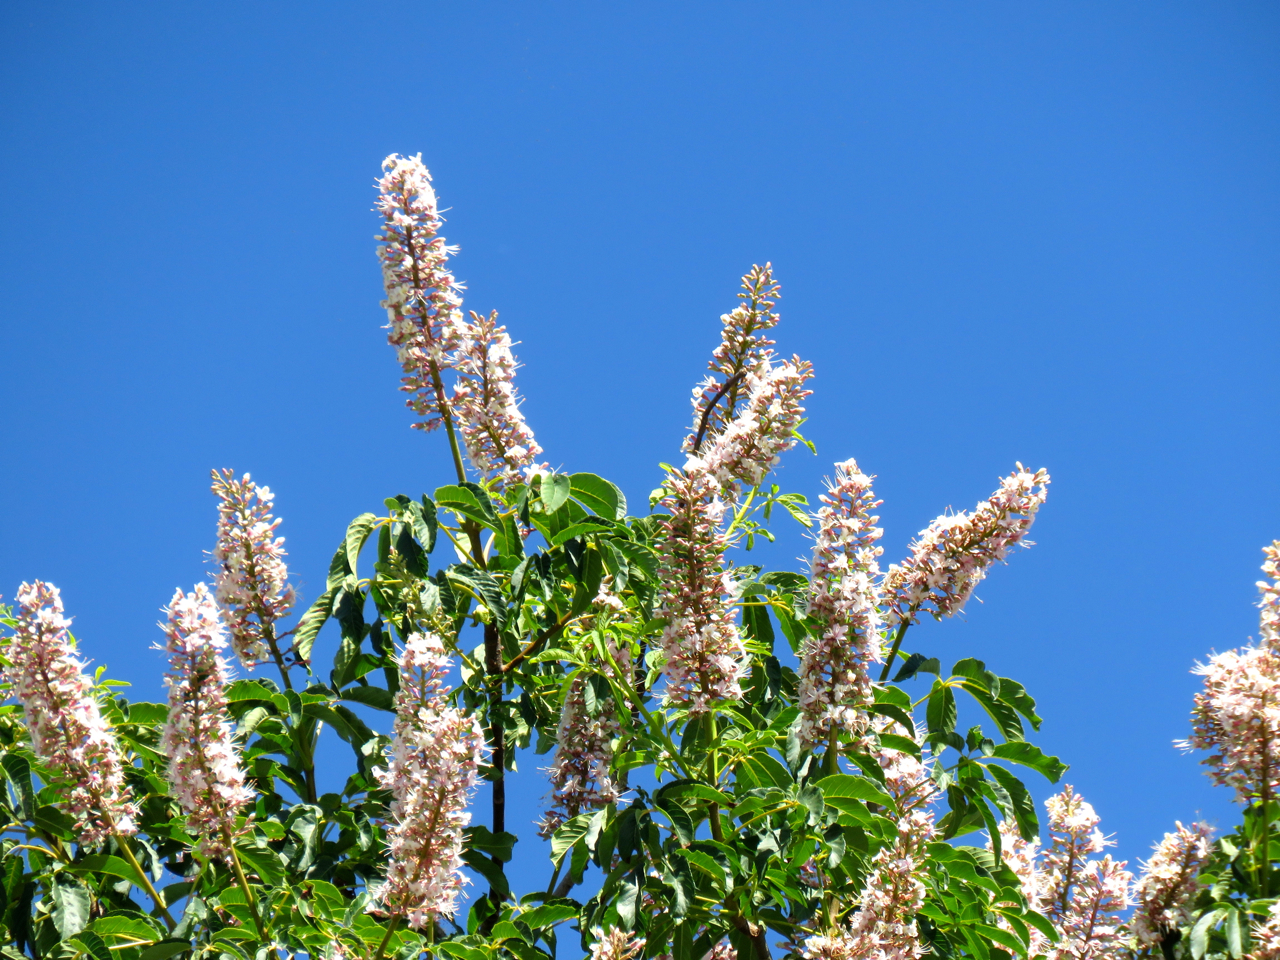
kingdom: Plantae
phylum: Tracheophyta
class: Magnoliopsida
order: Sapindales
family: Sapindaceae
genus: Aesculus
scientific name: Aesculus californica
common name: California buckeye
